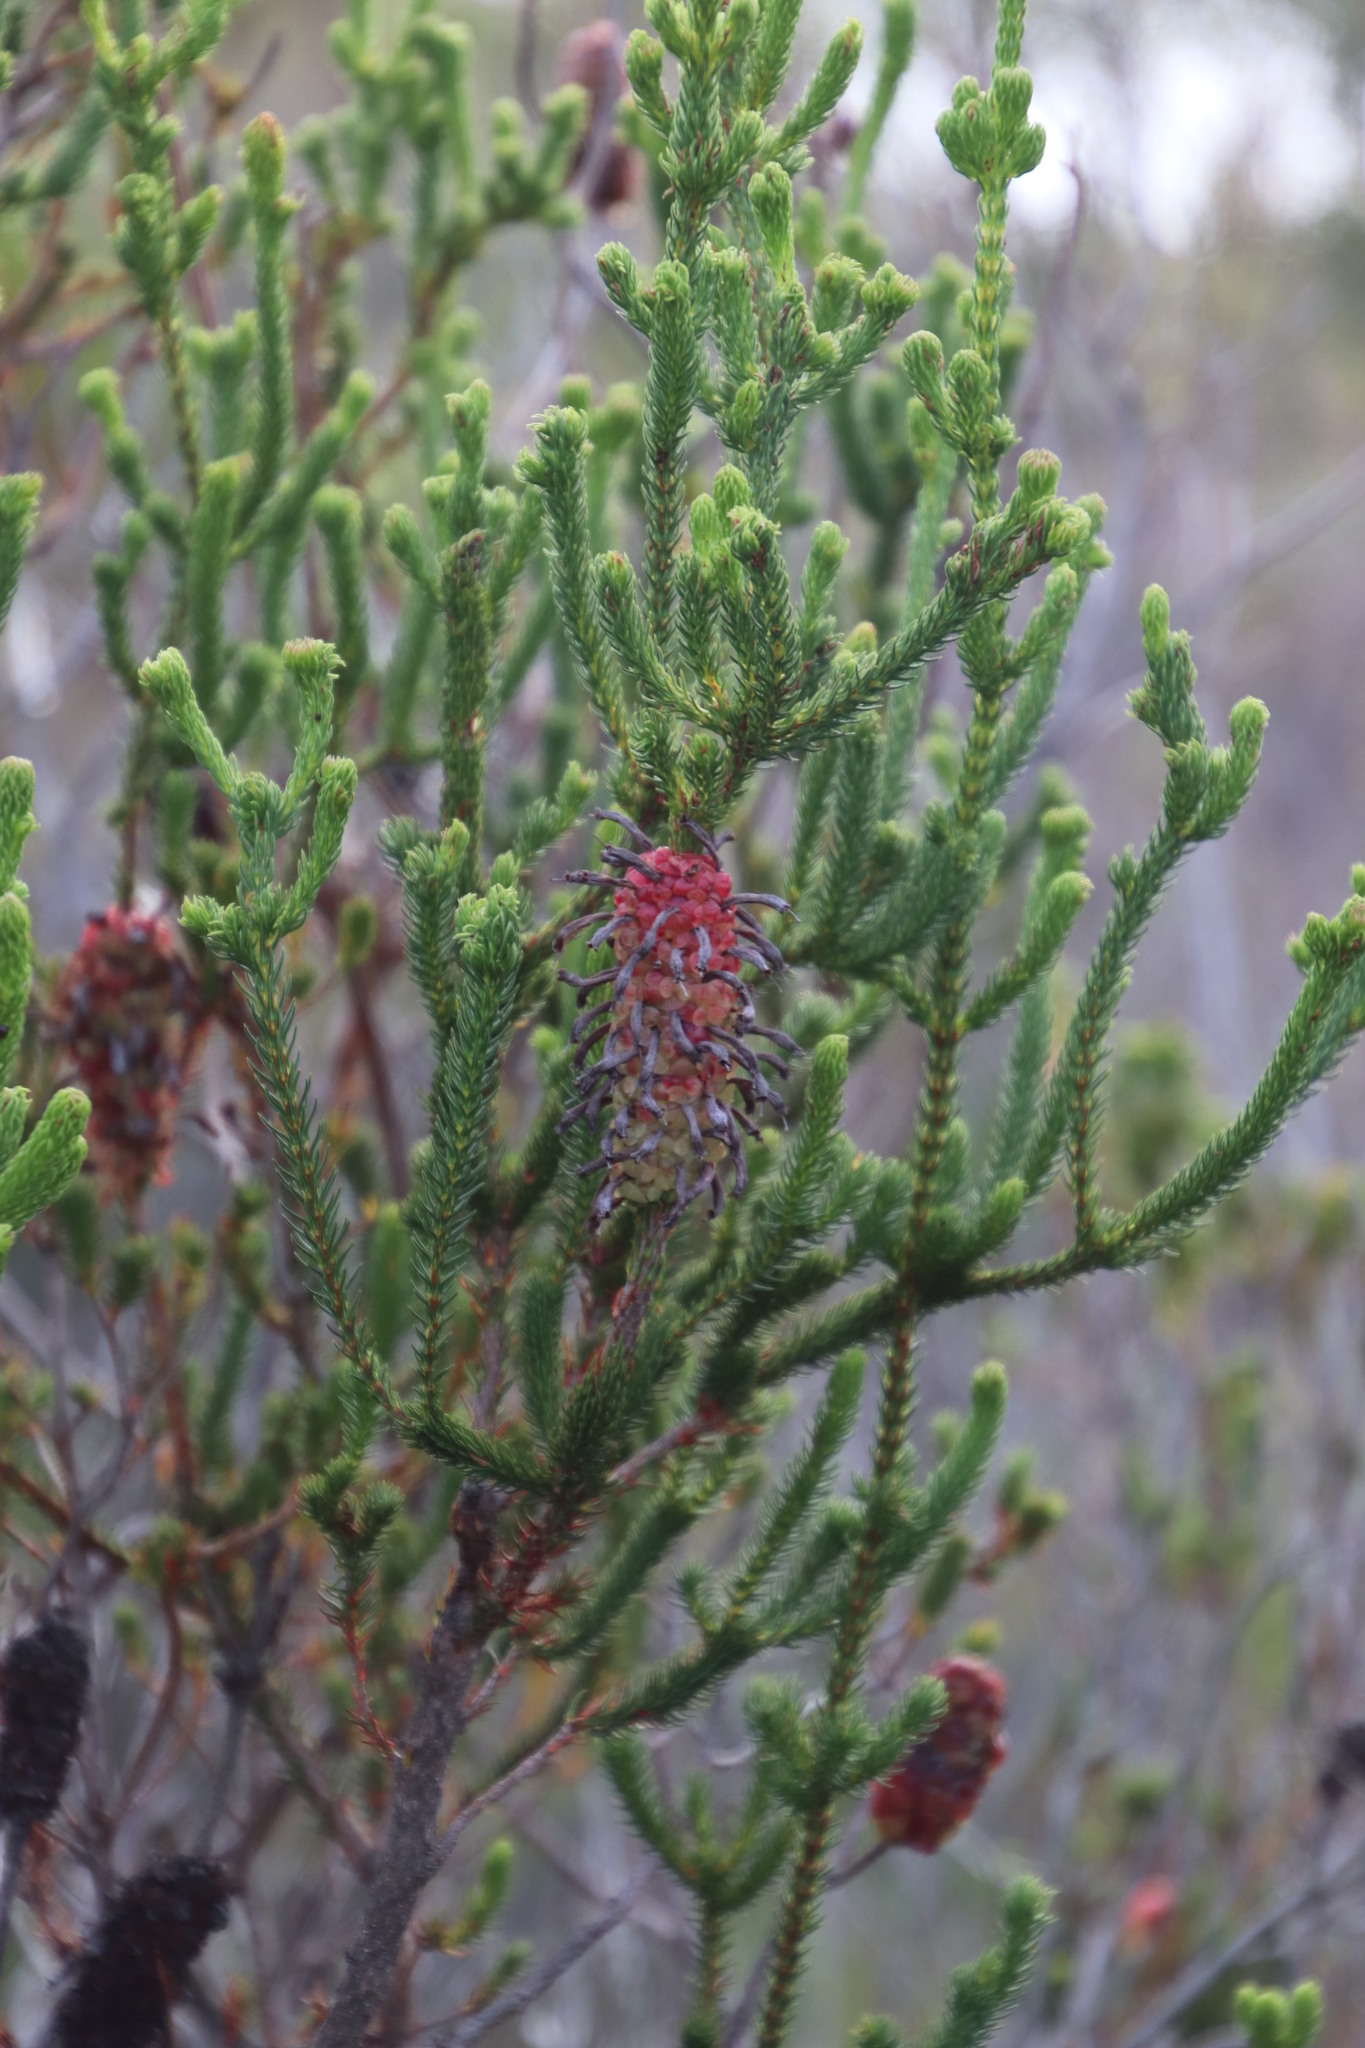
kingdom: Plantae
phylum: Tracheophyta
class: Magnoliopsida
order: Ericales
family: Ericaceae
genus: Erica
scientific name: Erica sessiliflora
